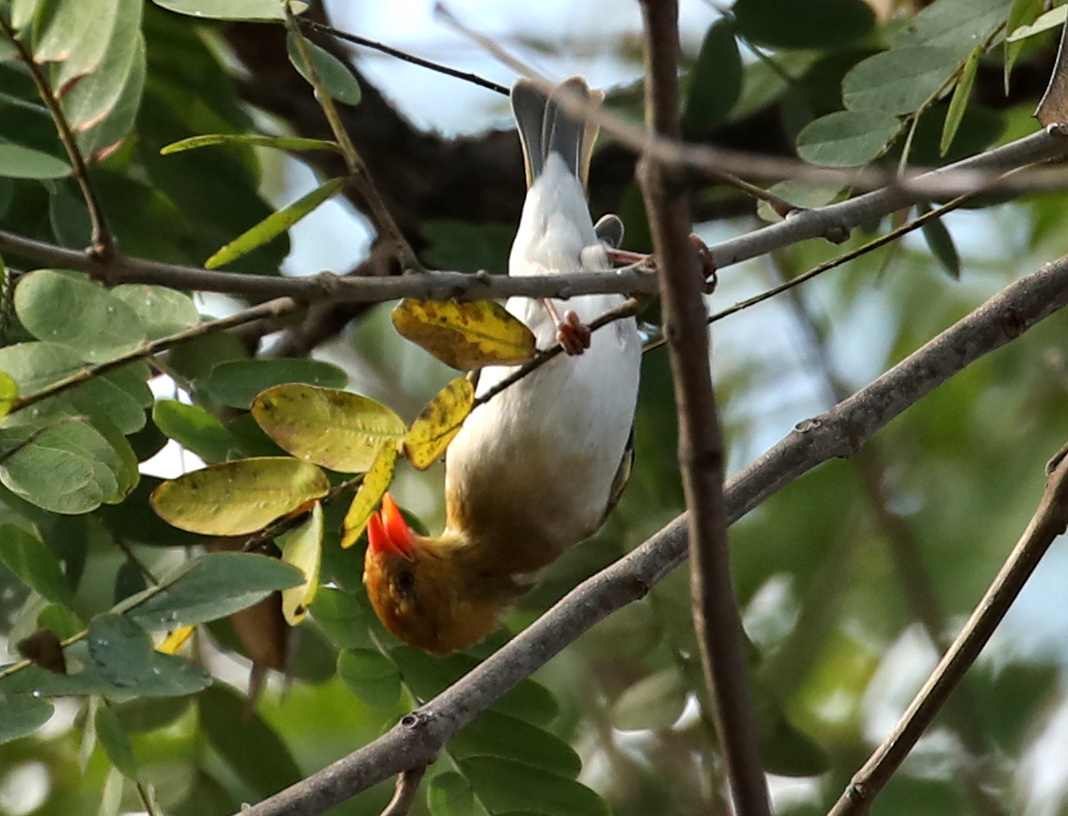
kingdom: Animalia
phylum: Chordata
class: Aves
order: Passeriformes
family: Ploceidae
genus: Anaplectes
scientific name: Anaplectes rubriceps
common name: Red-headed weaver
